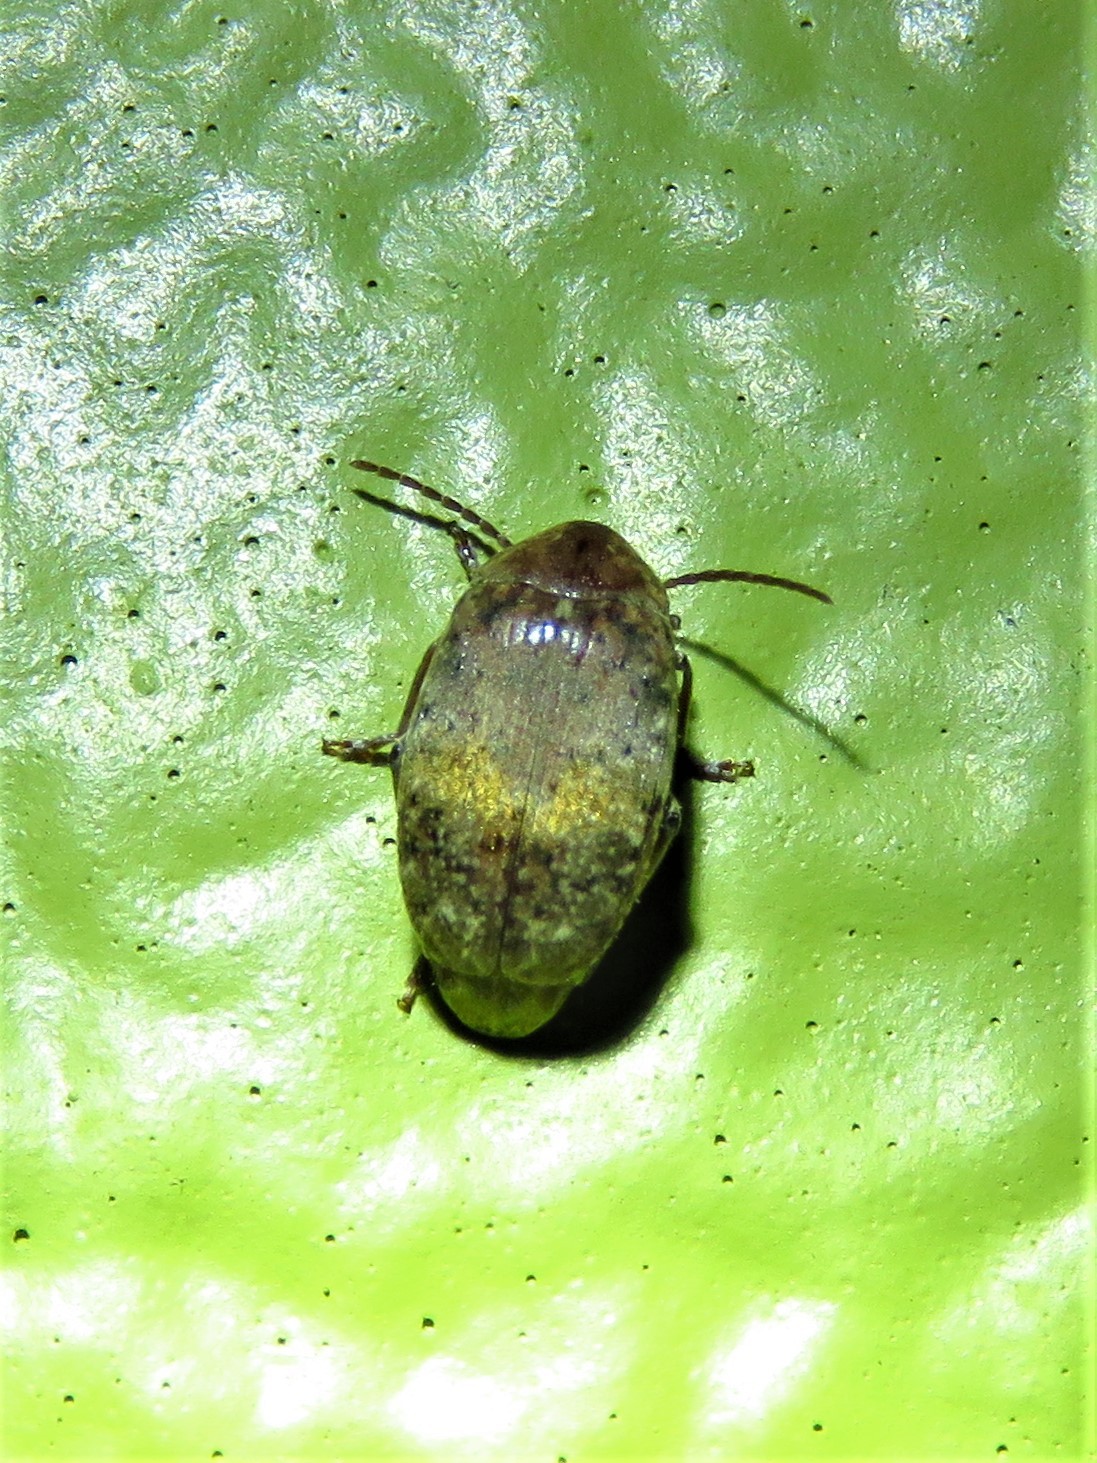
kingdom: Animalia
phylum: Arthropoda
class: Insecta
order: Coleoptera
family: Chrysomelidae
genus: Amblycerus
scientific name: Amblycerus robiniae
